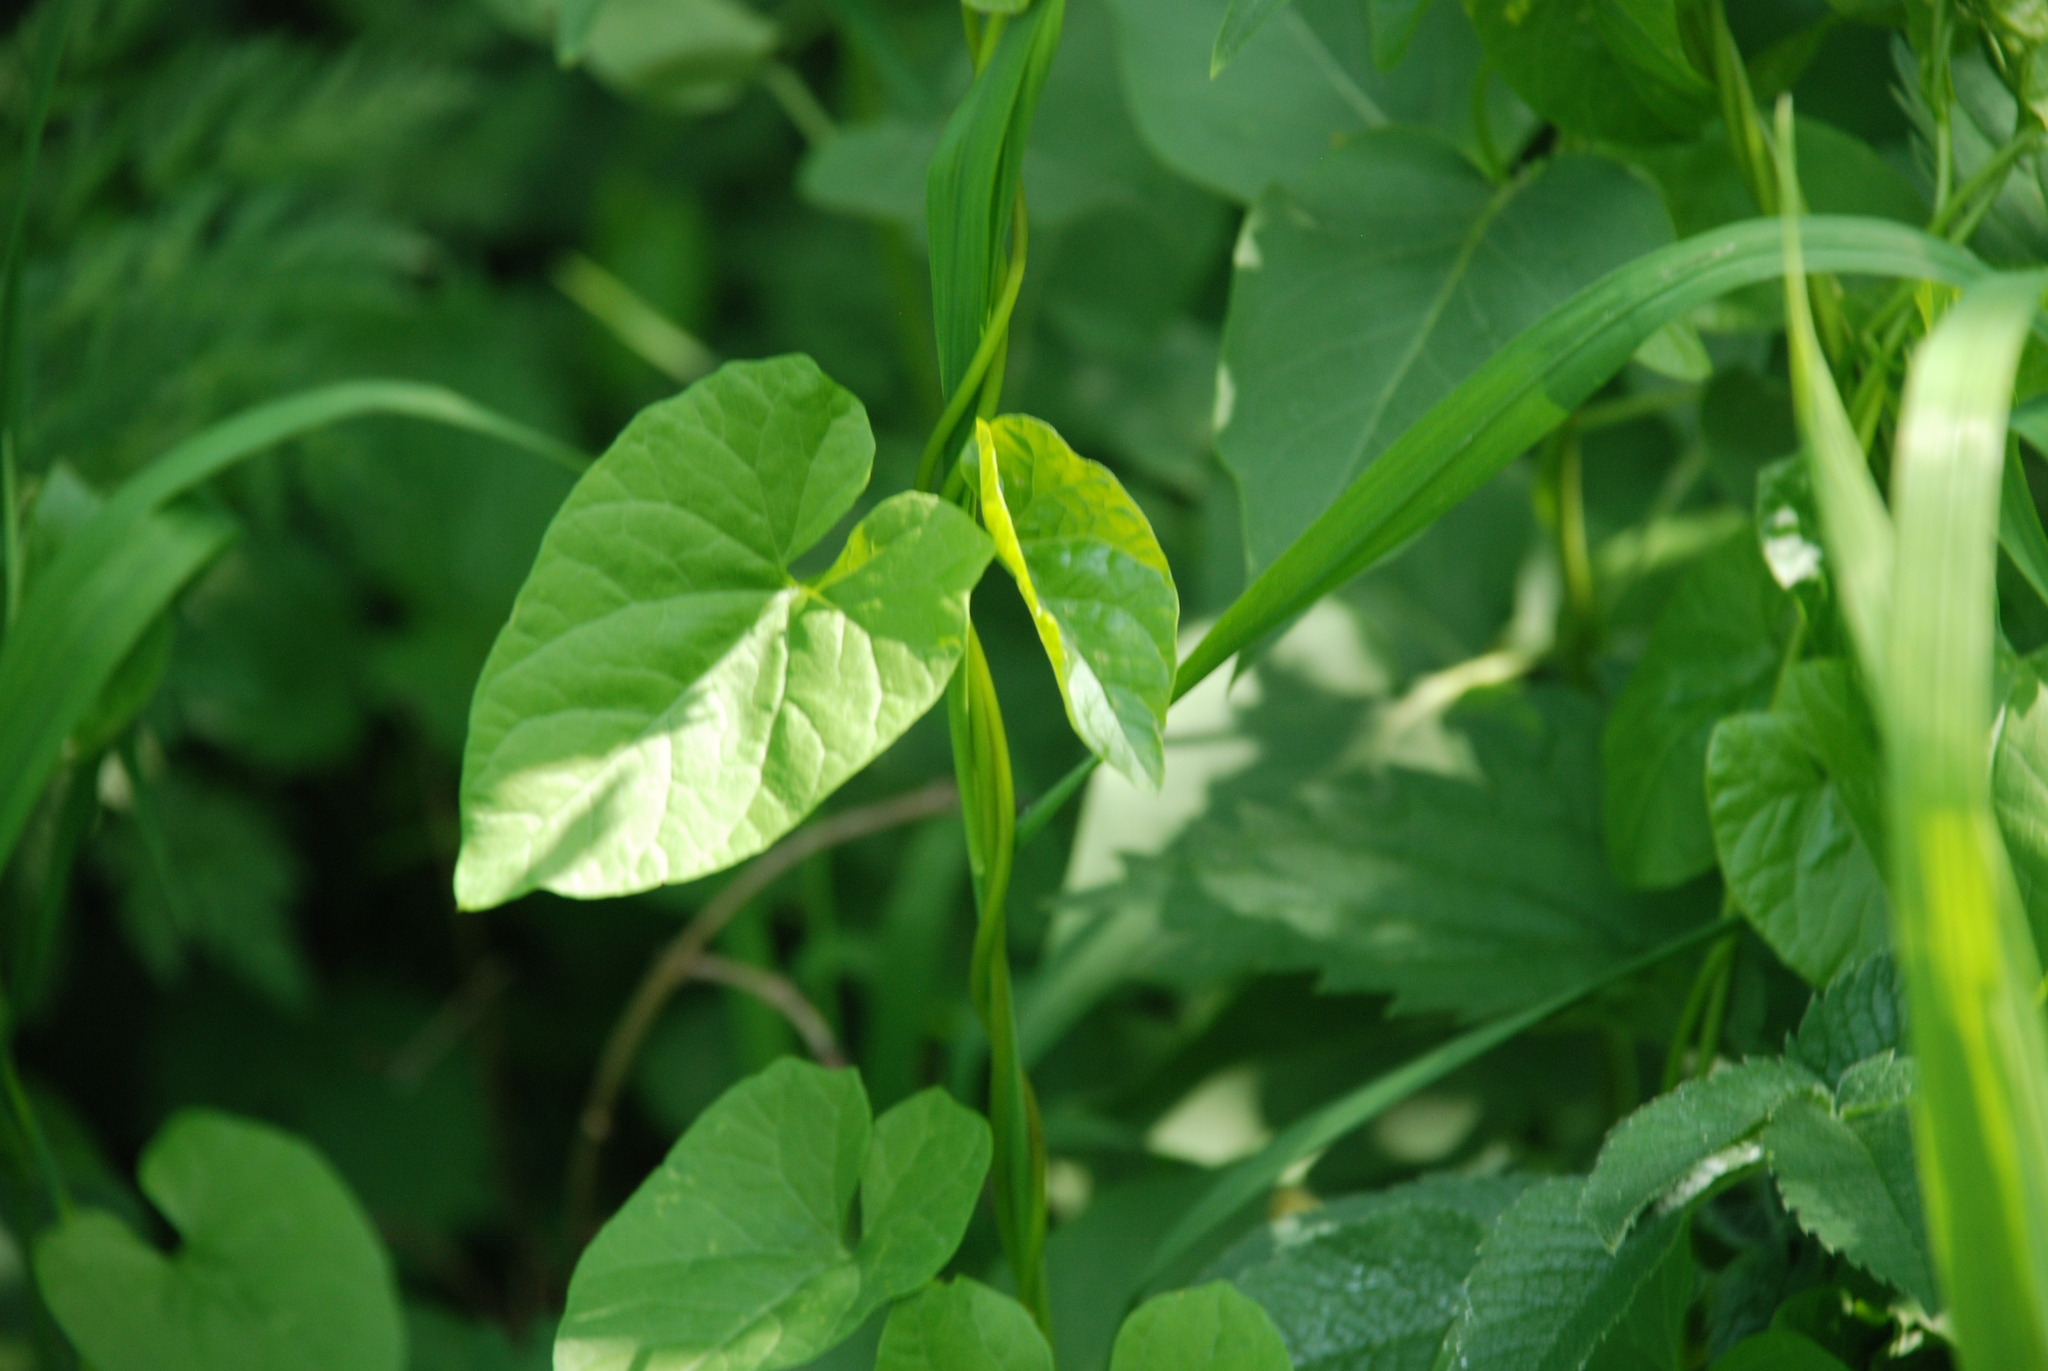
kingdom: Plantae
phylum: Tracheophyta
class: Magnoliopsida
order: Solanales
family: Convolvulaceae
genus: Calystegia
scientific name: Calystegia sepium
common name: Hedge bindweed
